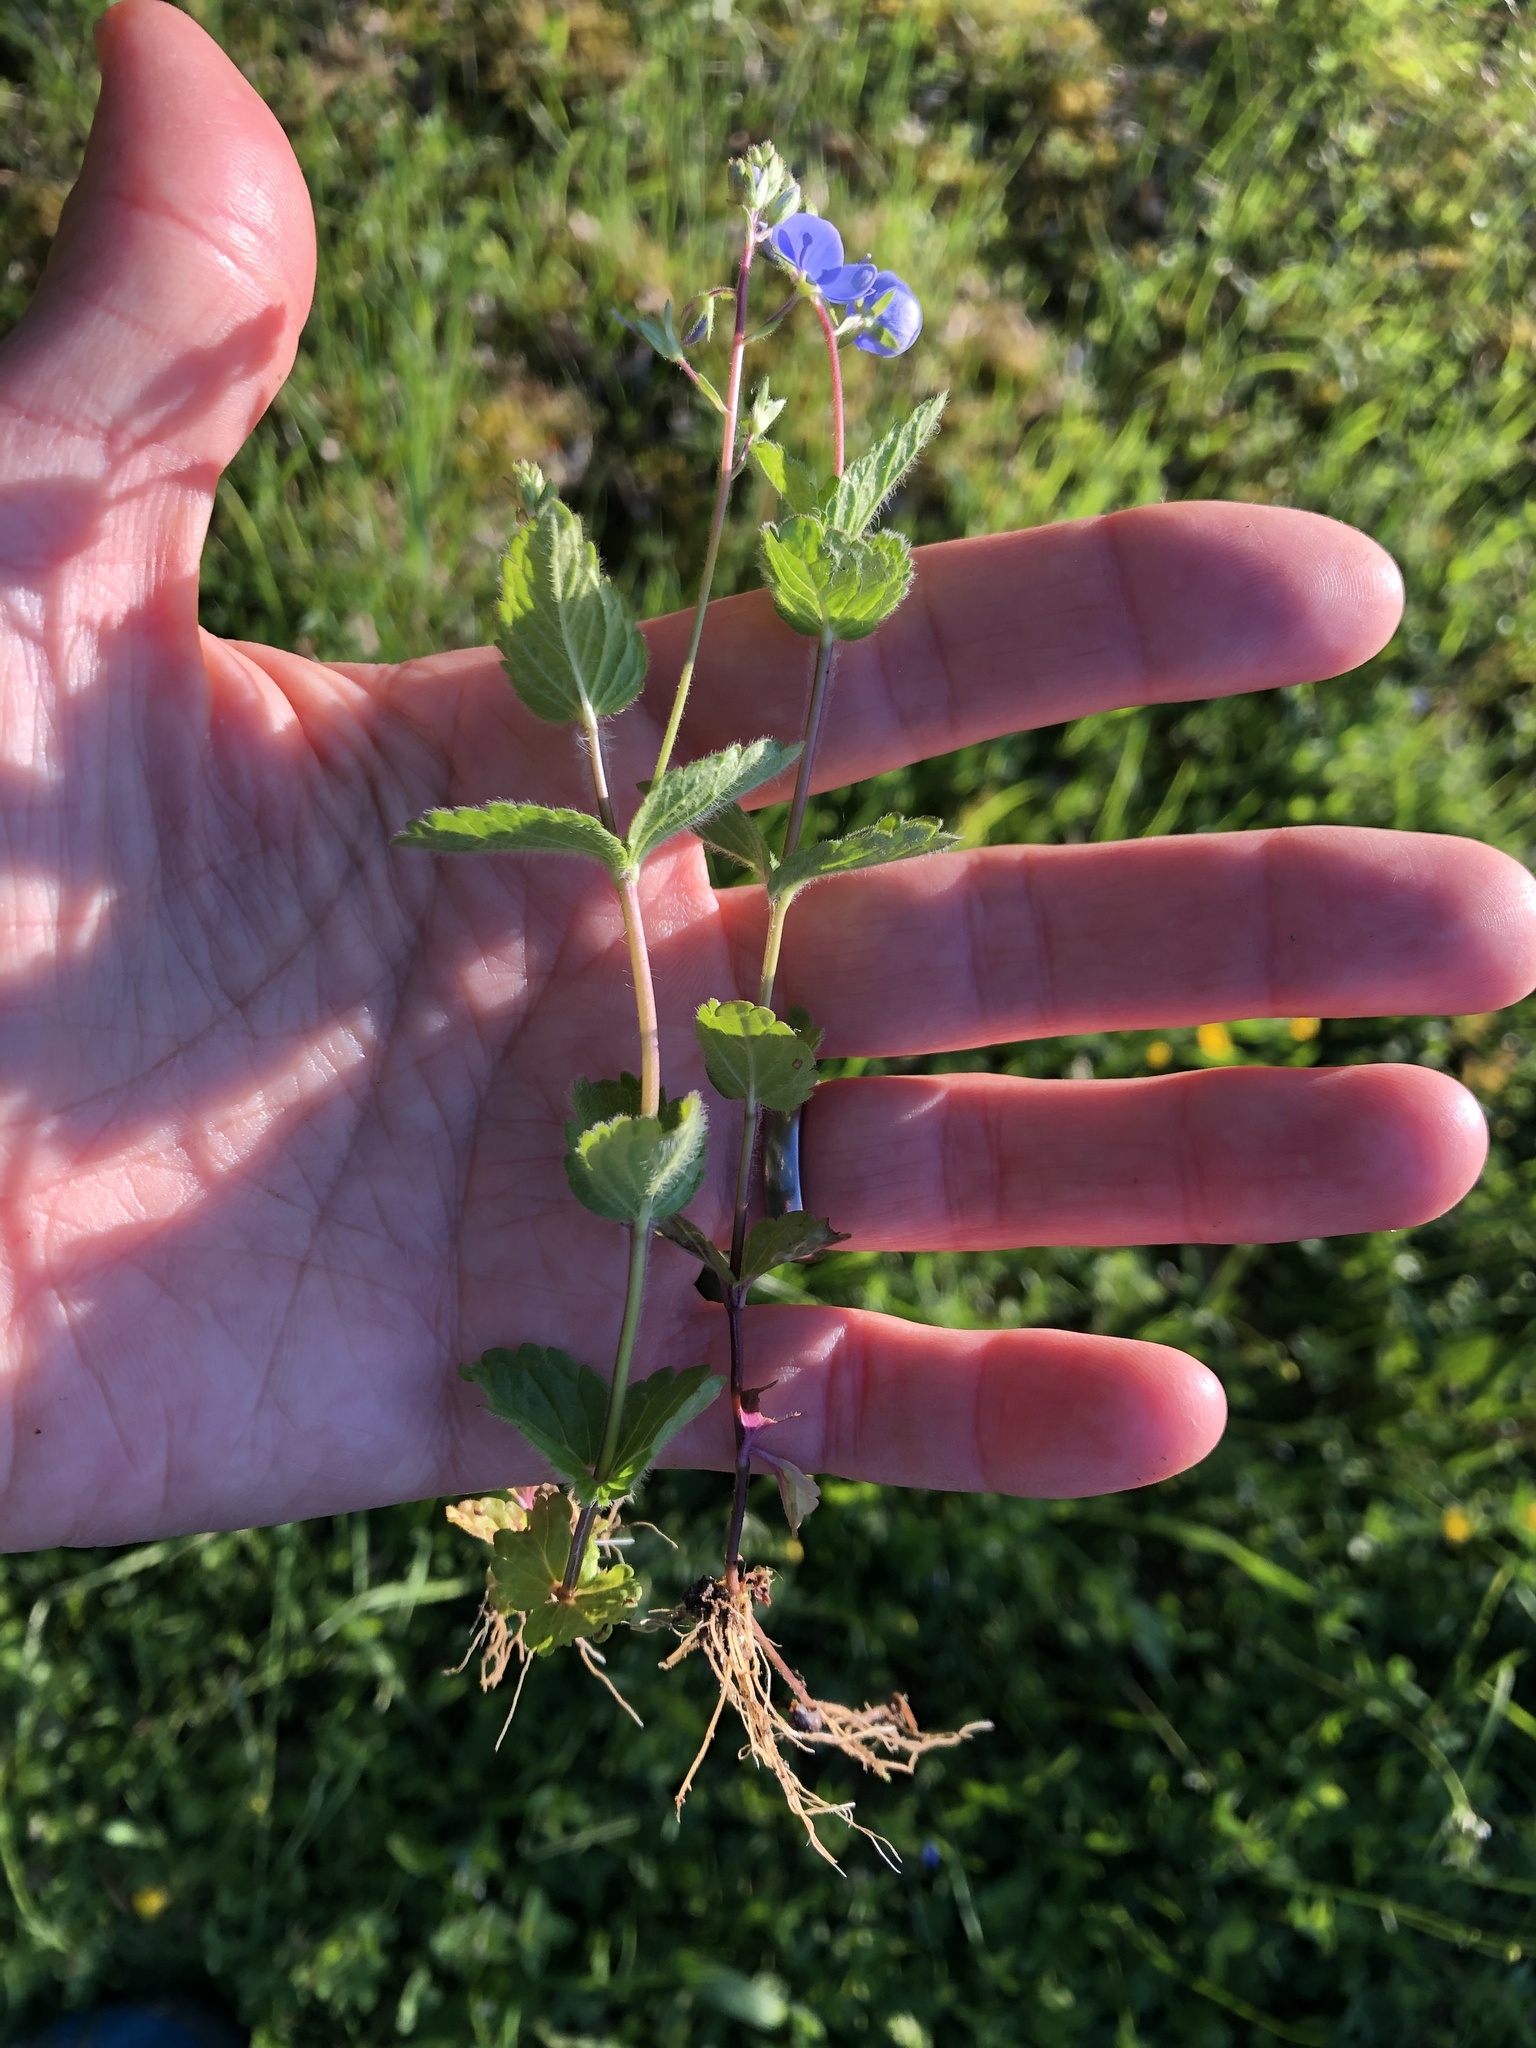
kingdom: Plantae
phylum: Tracheophyta
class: Magnoliopsida
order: Lamiales
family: Plantaginaceae
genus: Veronica
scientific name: Veronica chamaedrys
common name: Germander speedwell
